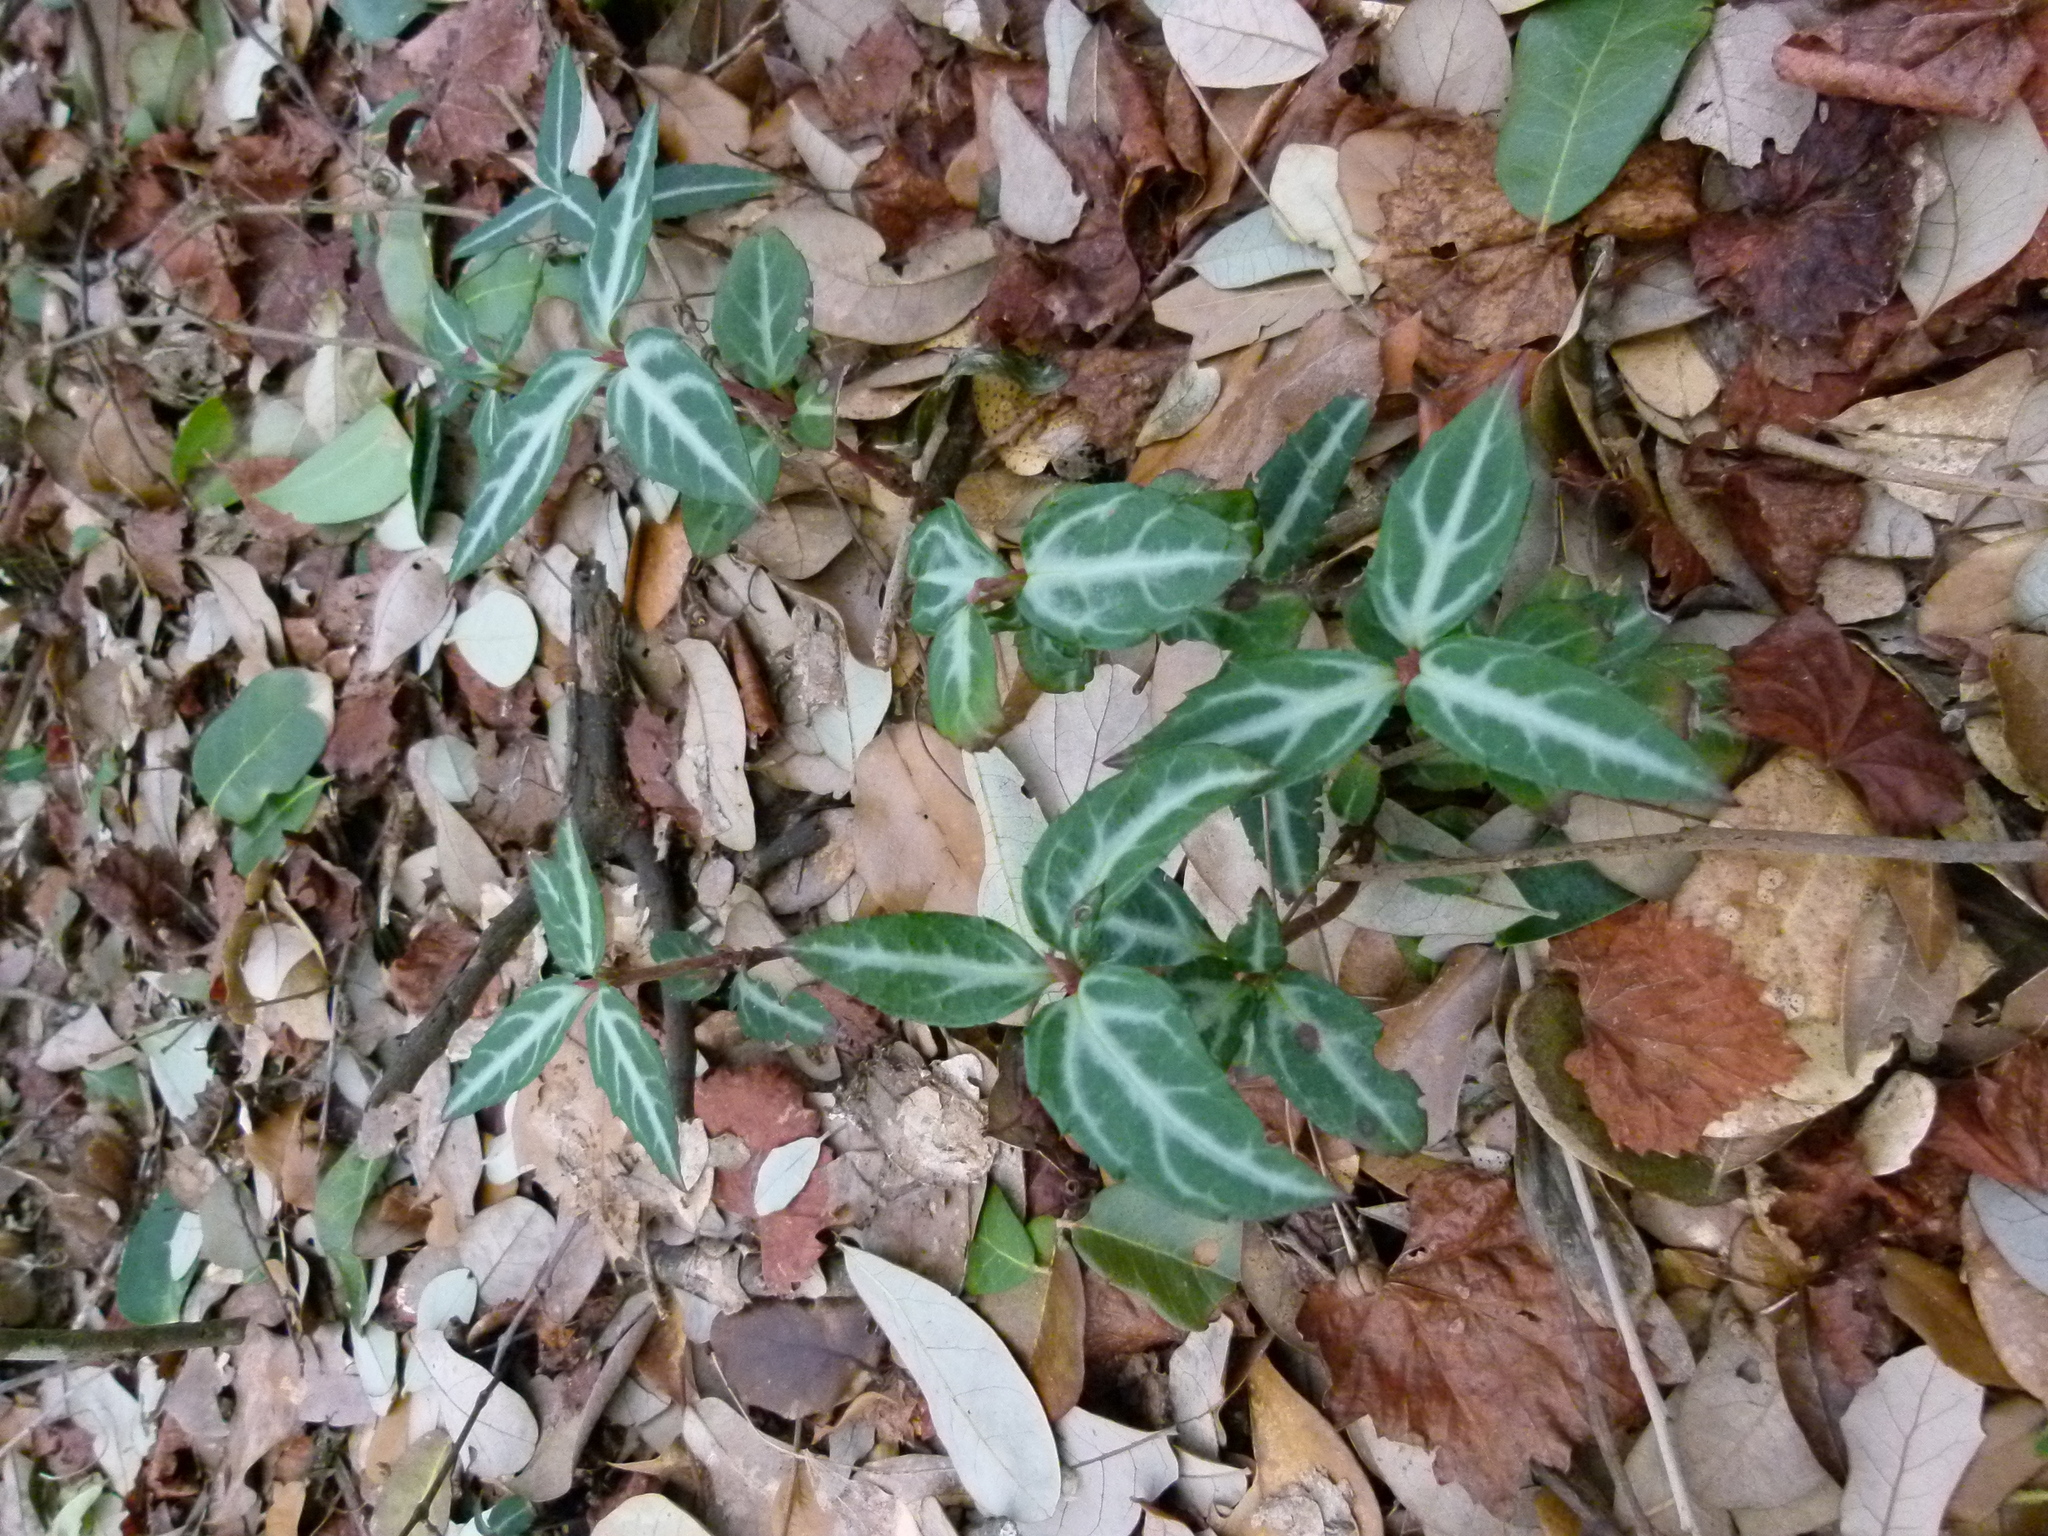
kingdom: Plantae
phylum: Tracheophyta
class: Magnoliopsida
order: Ericales
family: Ericaceae
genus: Chimaphila
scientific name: Chimaphila maculata
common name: Spotted pipsissewa
